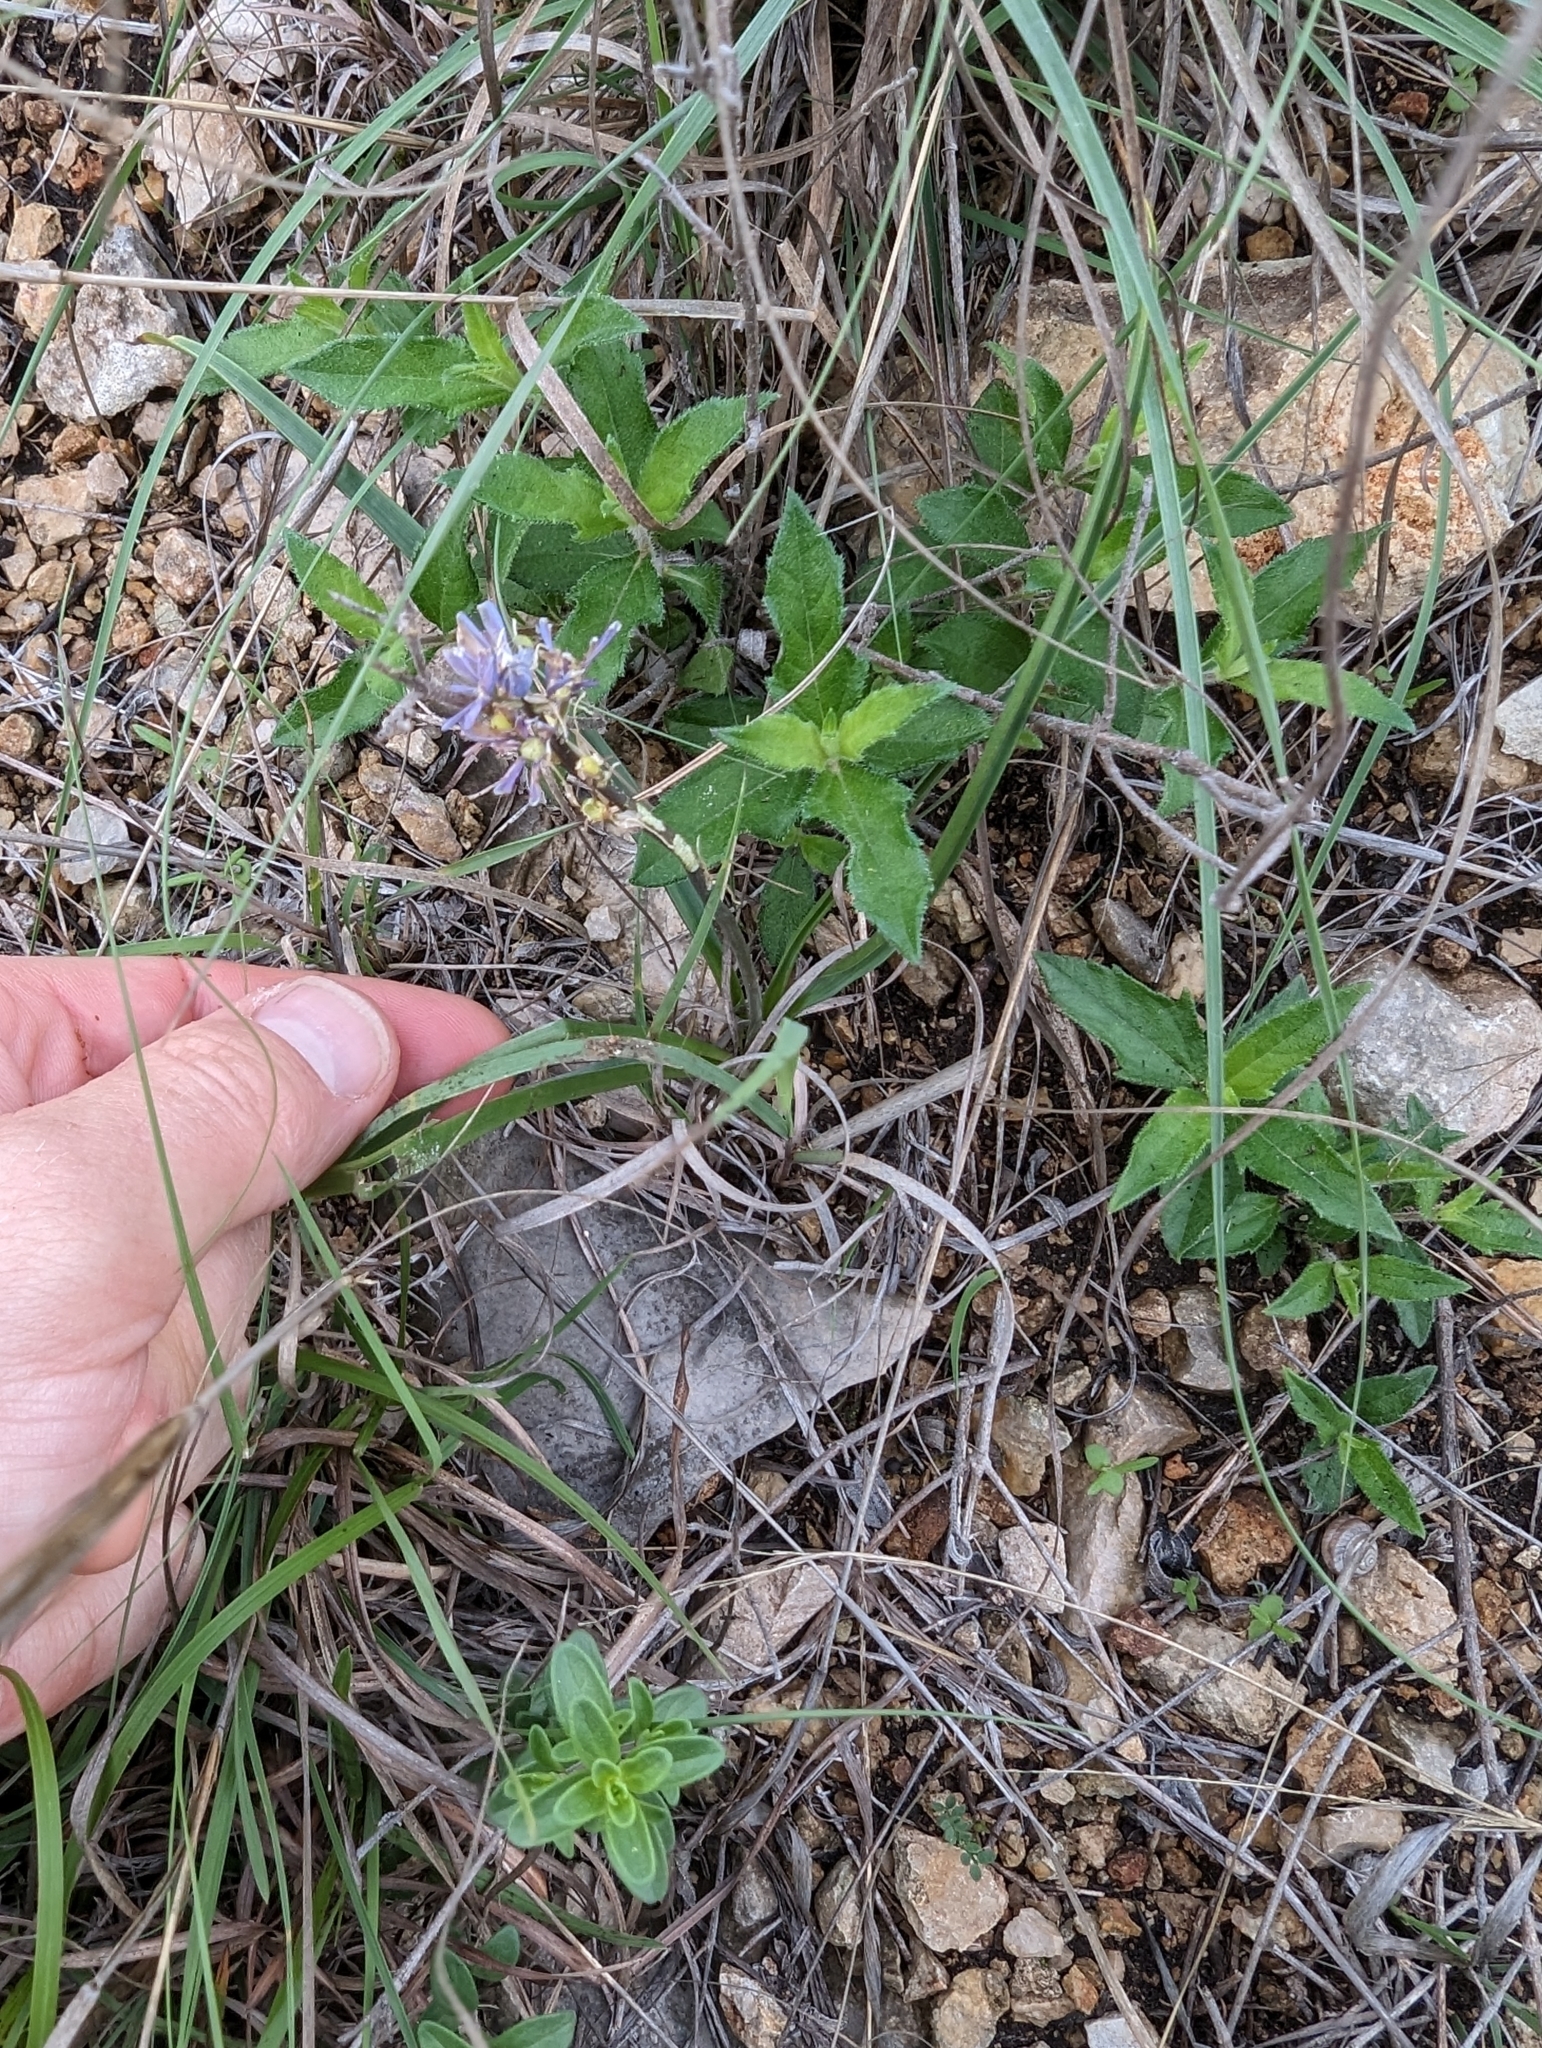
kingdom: Plantae
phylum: Tracheophyta
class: Liliopsida
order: Asparagales
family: Asparagaceae
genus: Camassia
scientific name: Camassia scilloides
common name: Wild hyacinth
